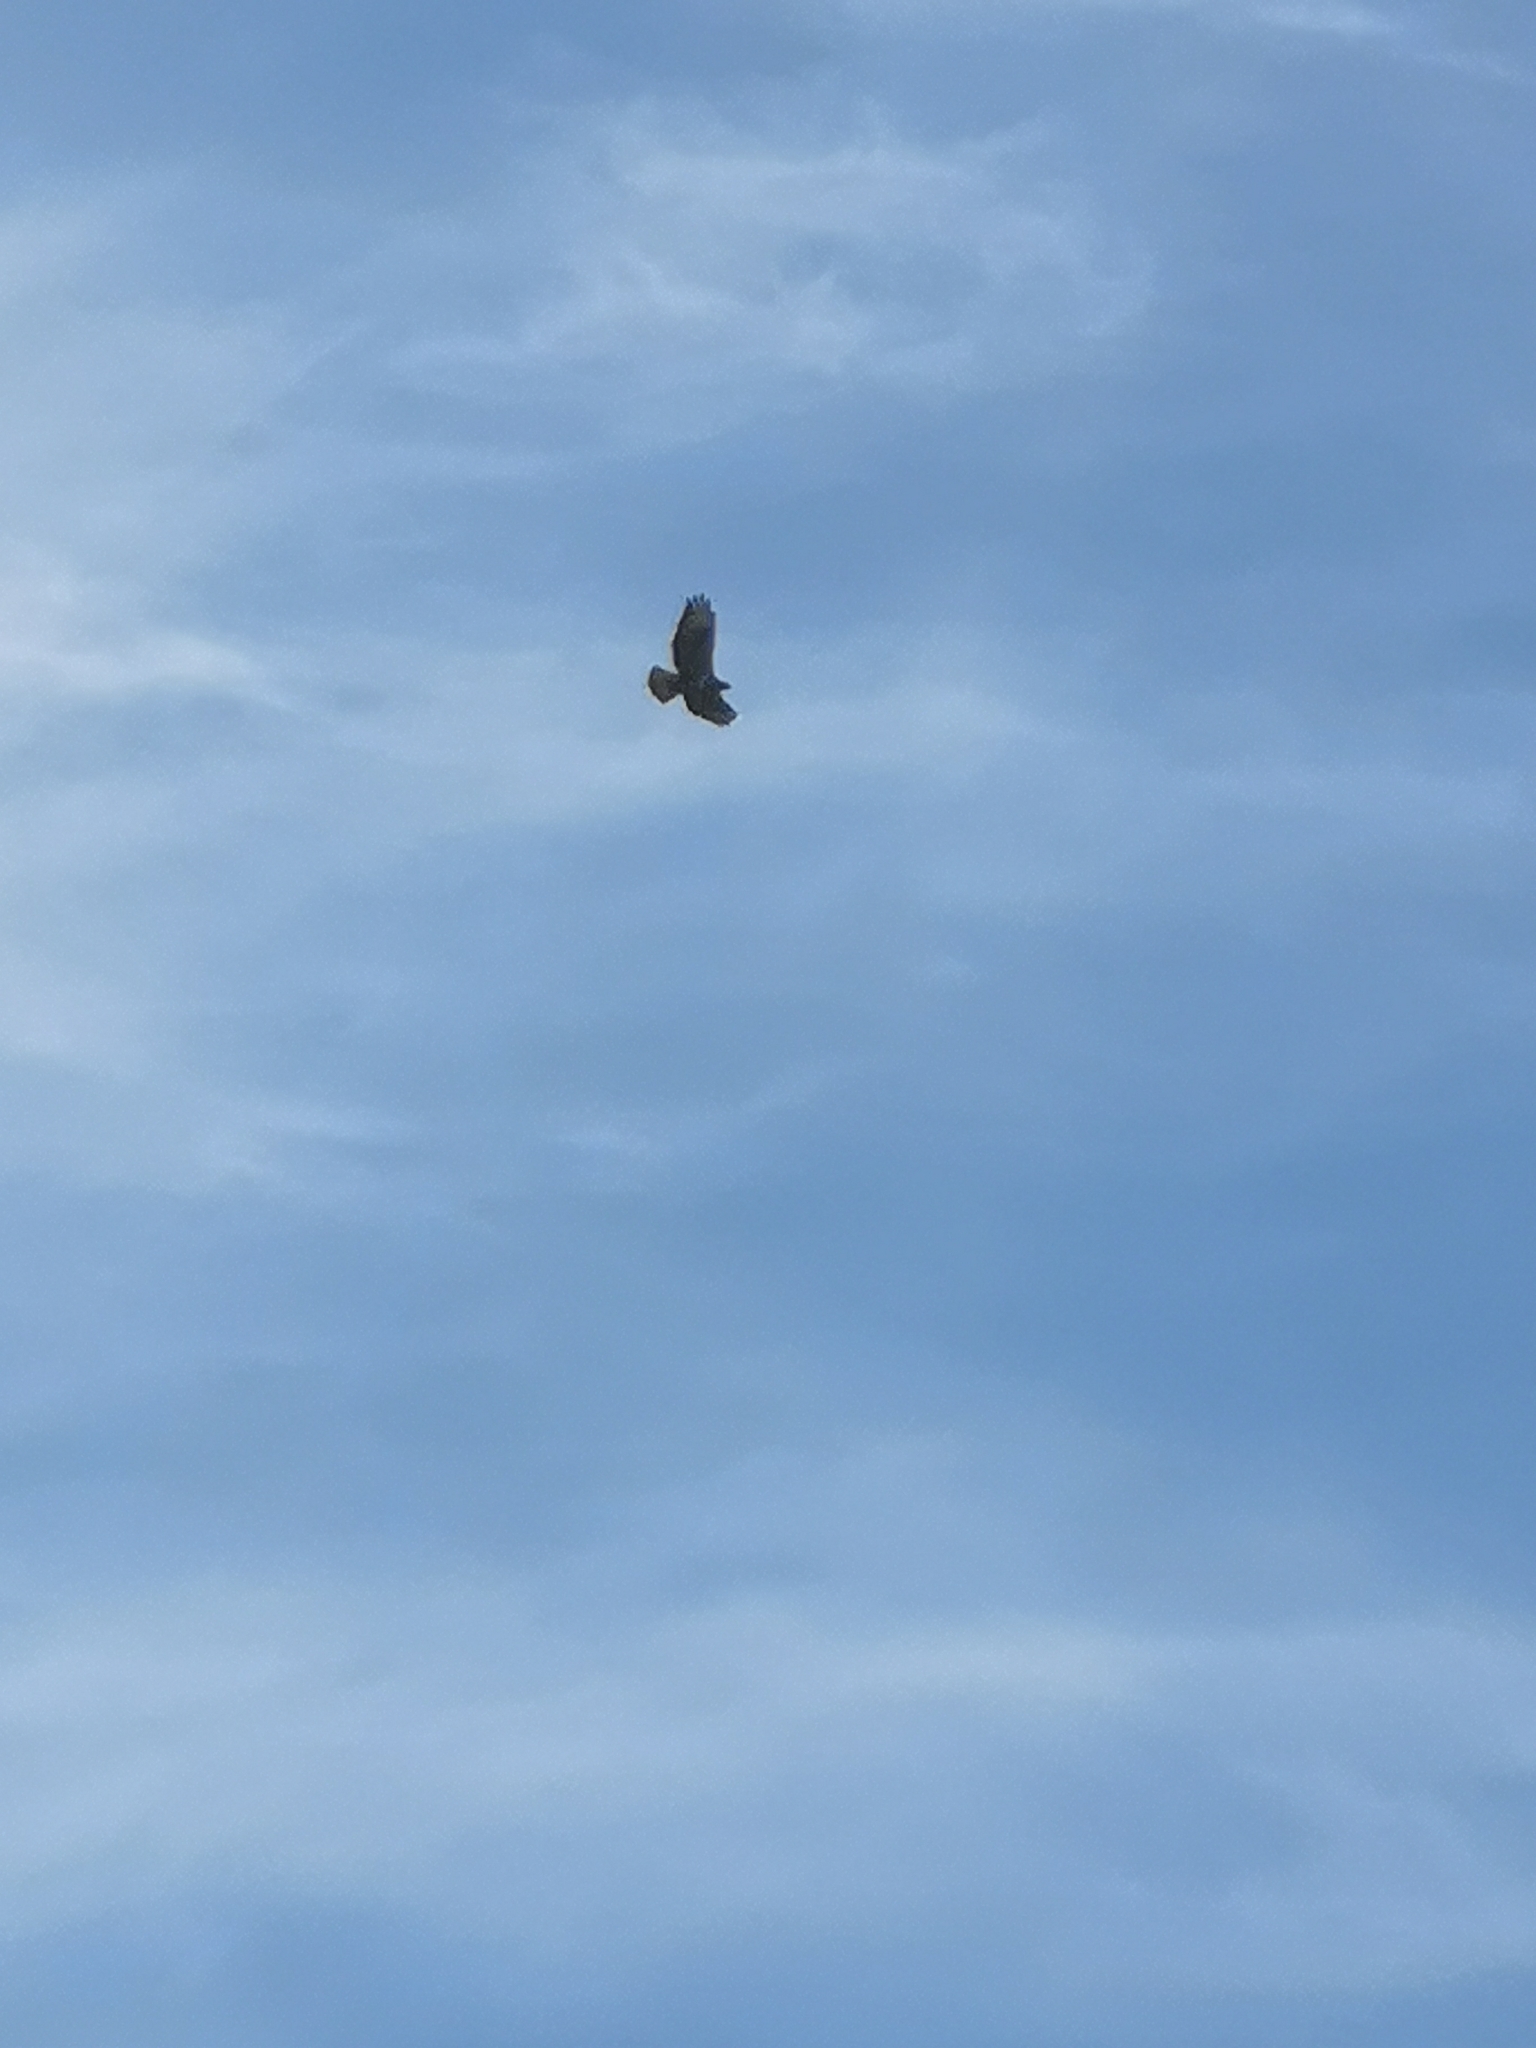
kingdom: Animalia
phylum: Chordata
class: Aves
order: Accipitriformes
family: Accipitridae
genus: Buteo
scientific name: Buteo buteo
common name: Common buzzard
